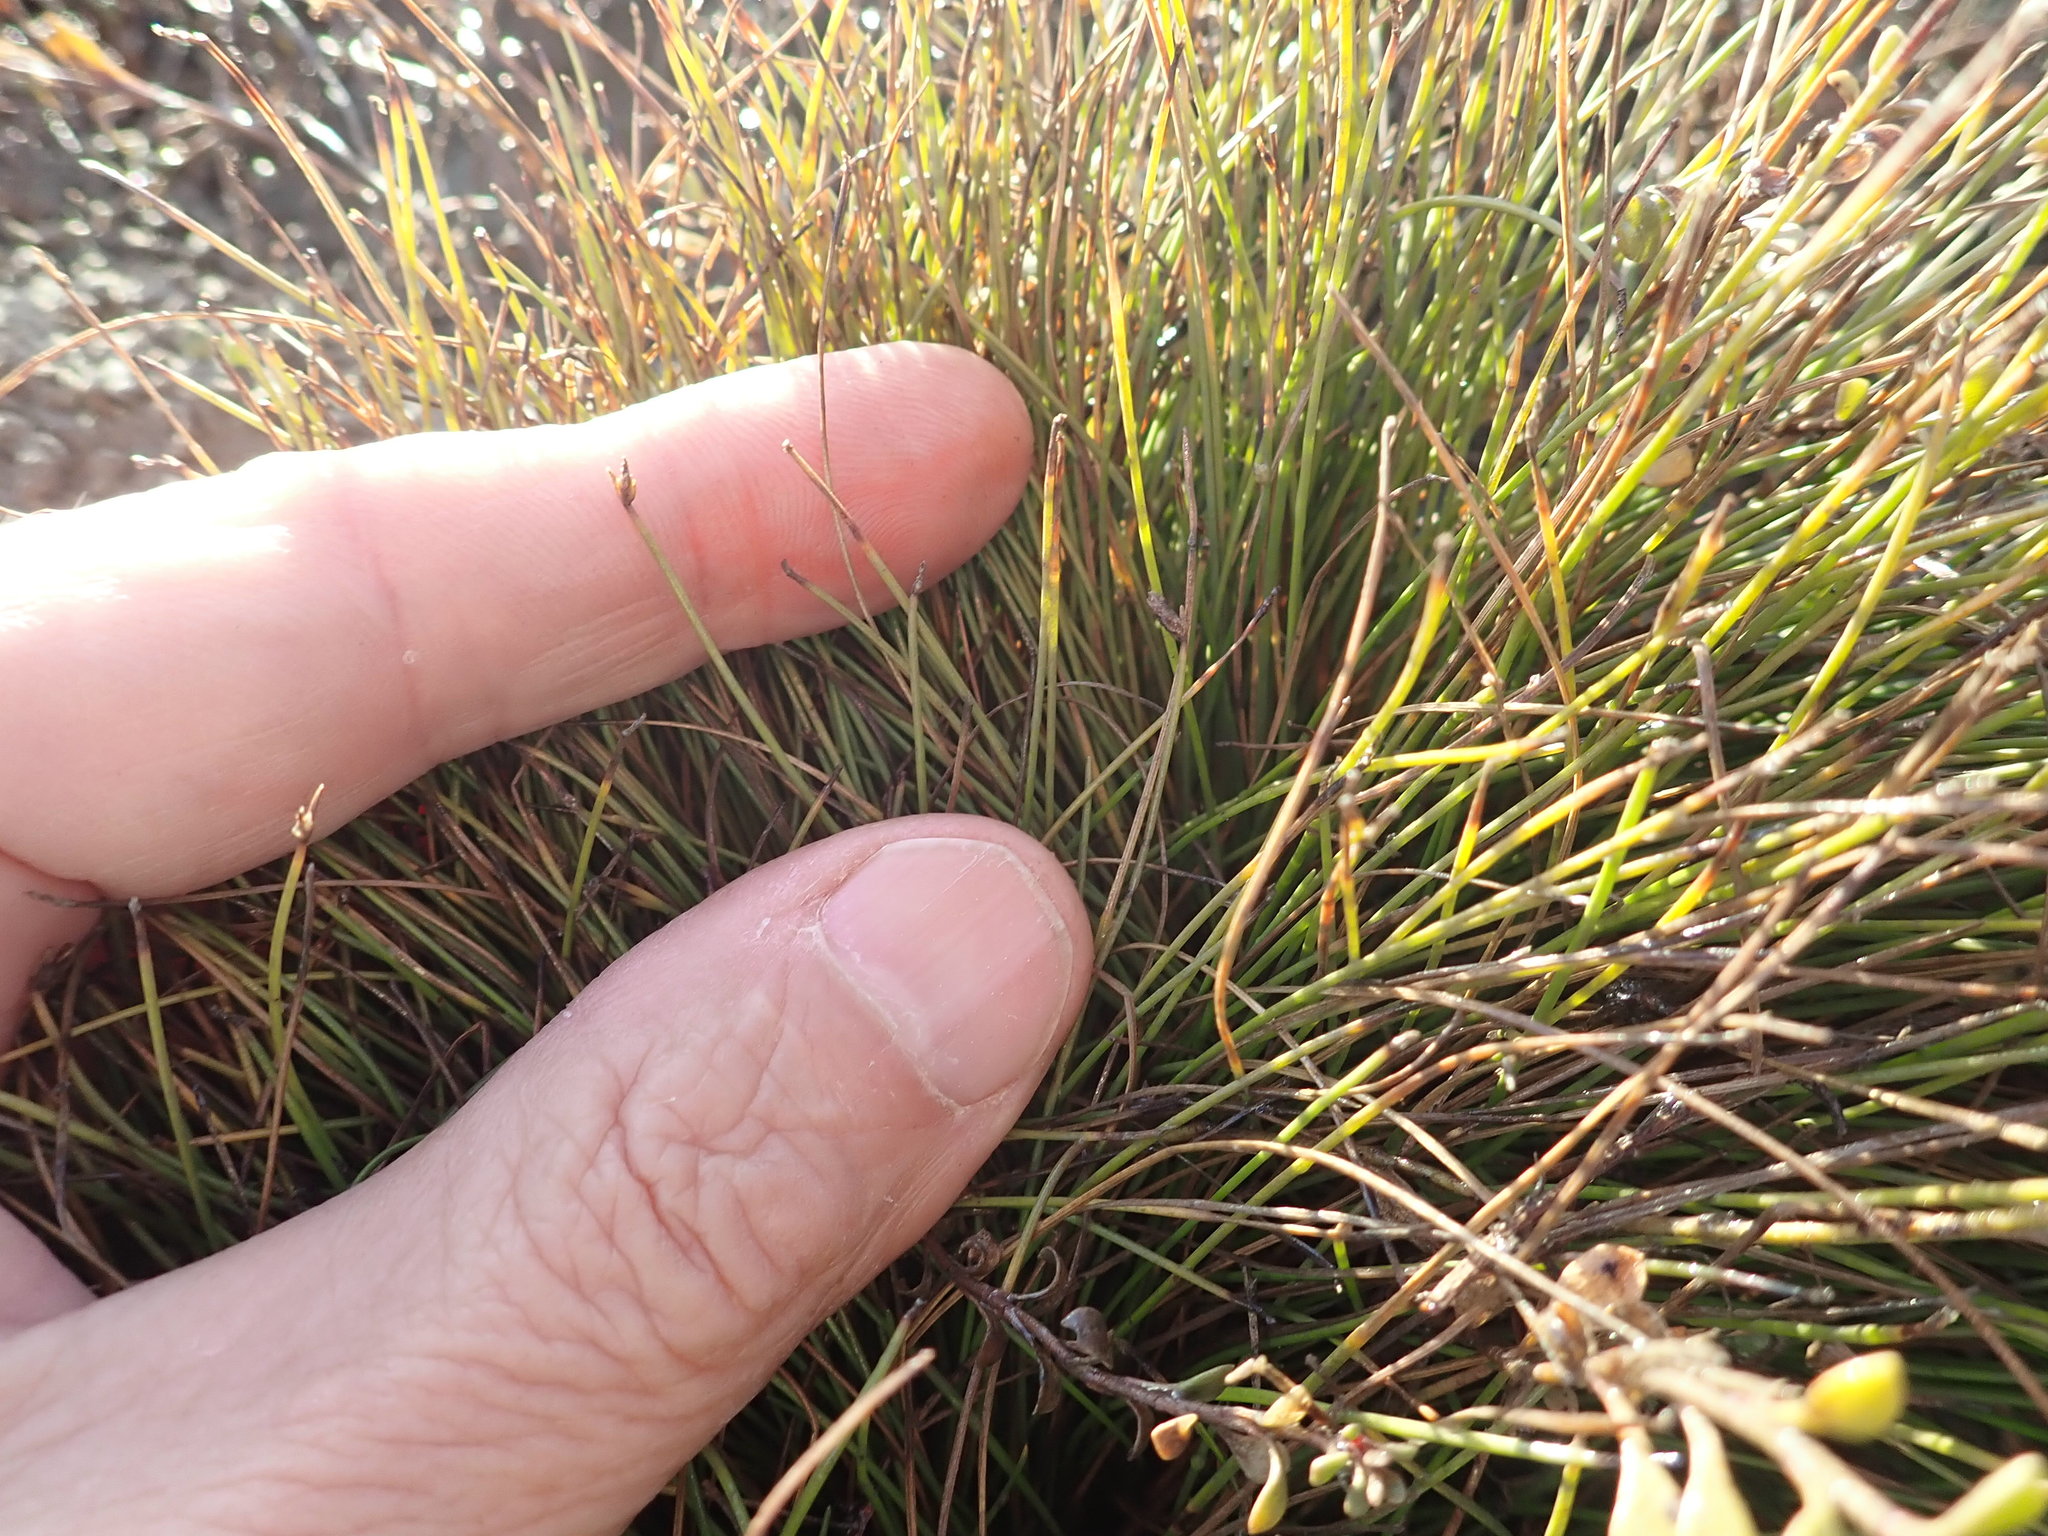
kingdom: Plantae
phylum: Tracheophyta
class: Liliopsida
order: Poales
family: Cyperaceae
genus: Isolepis
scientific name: Isolepis cernua
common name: Slender club-rush
